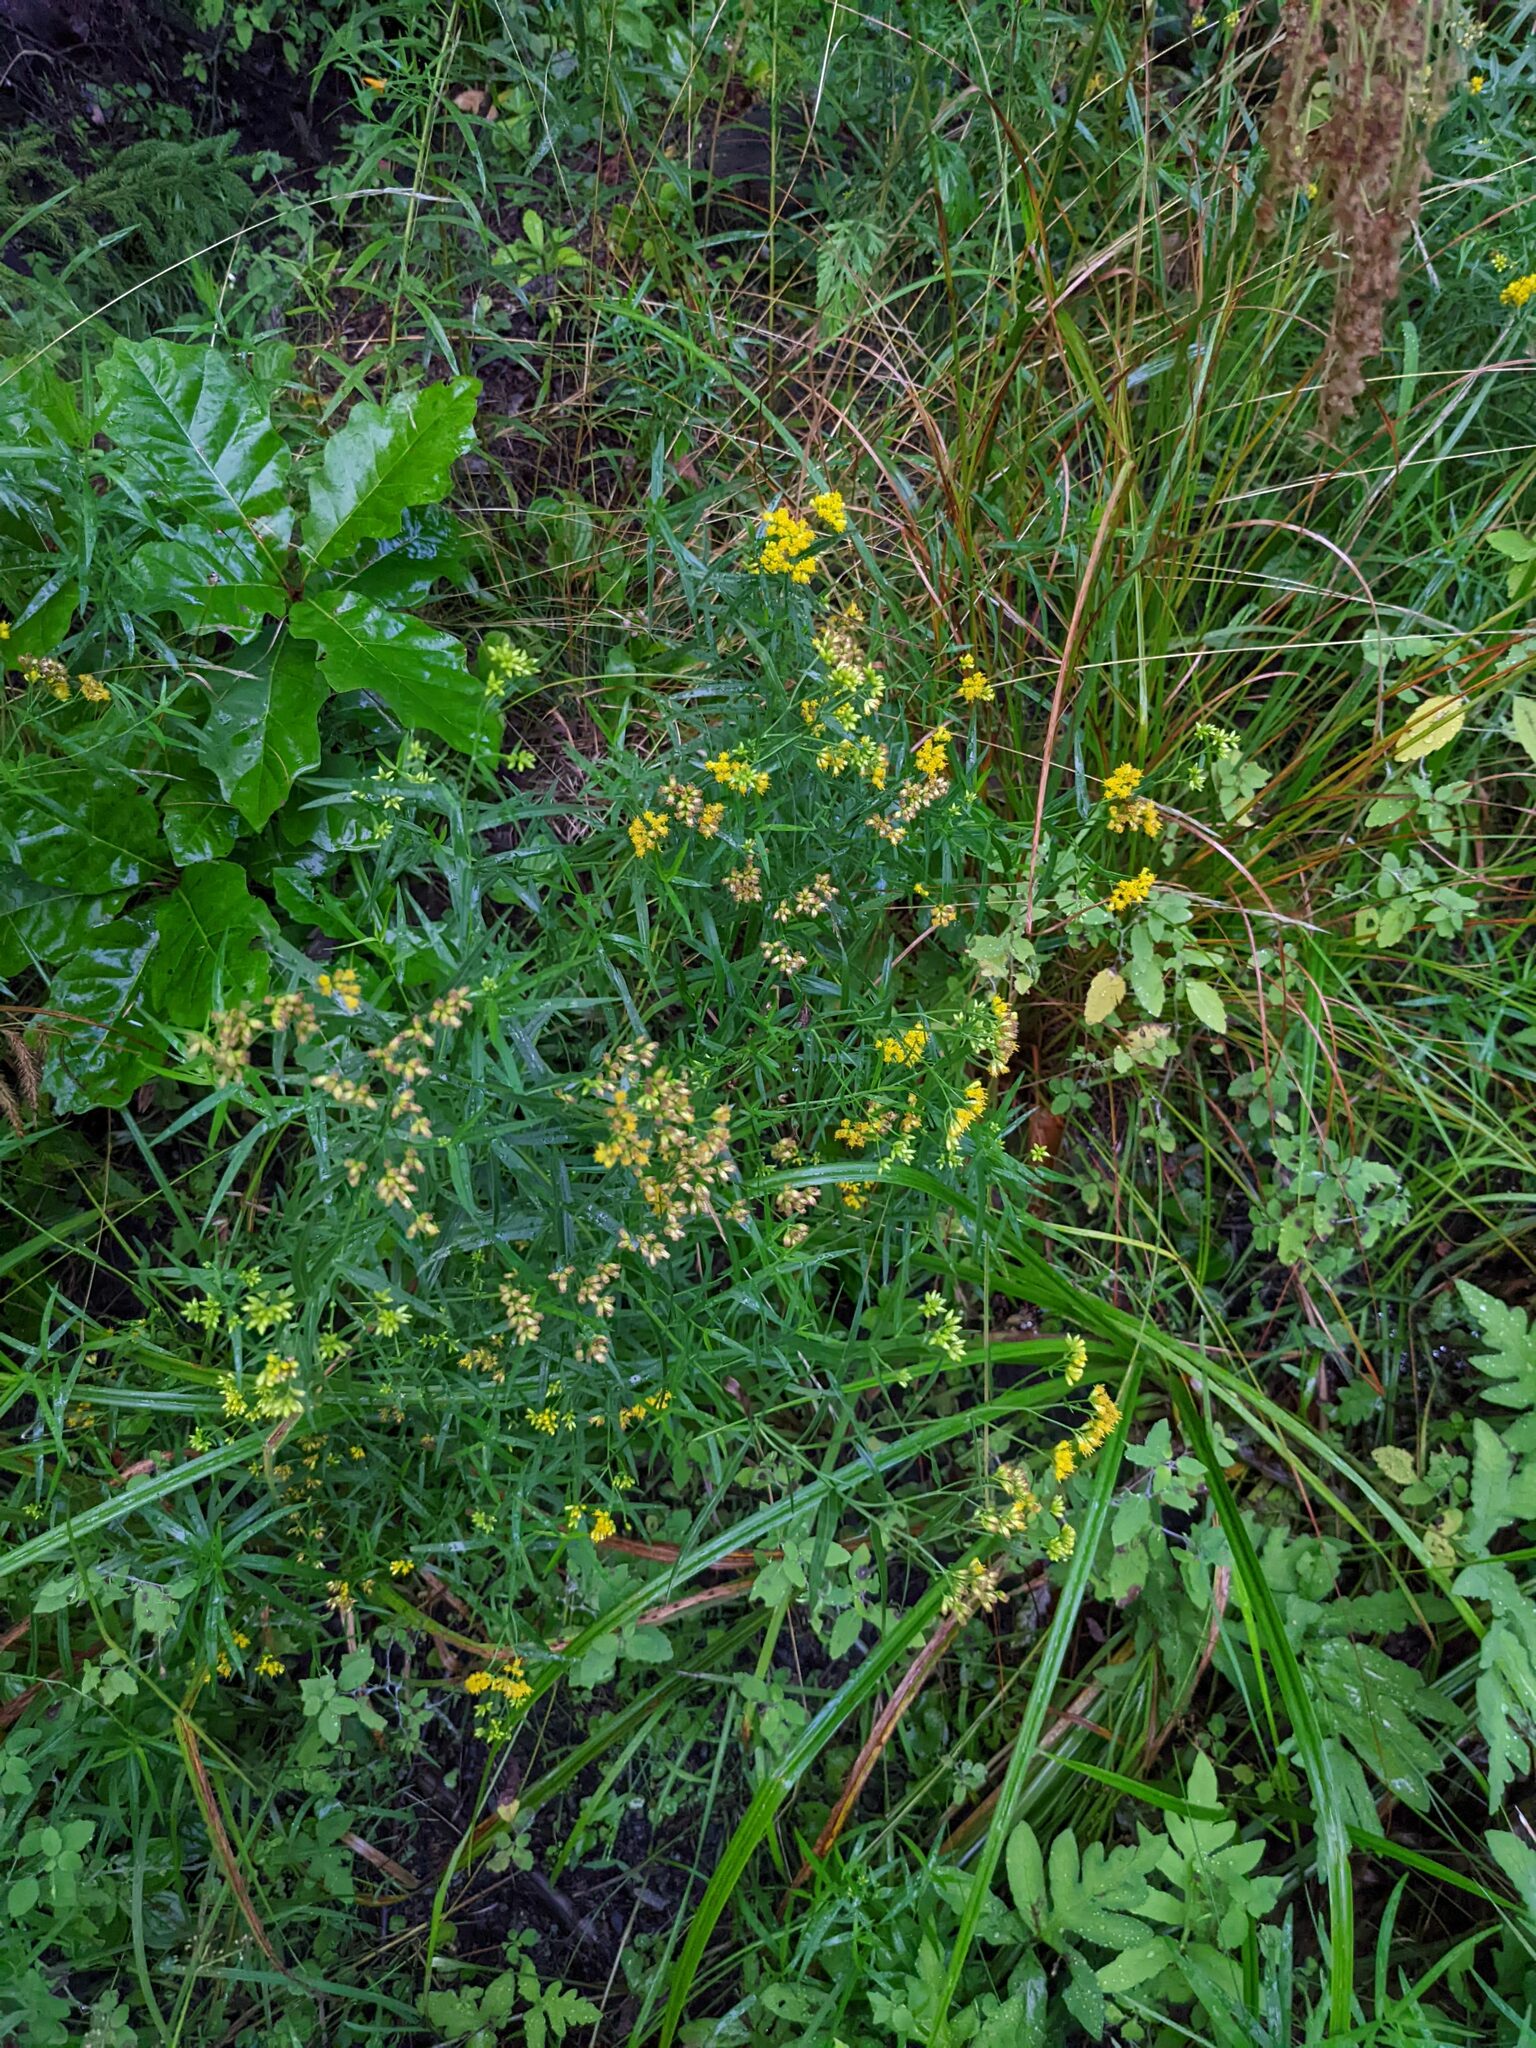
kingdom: Plantae
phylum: Tracheophyta
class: Magnoliopsida
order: Asterales
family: Asteraceae
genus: Euthamia
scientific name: Euthamia graminifolia
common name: Common goldentop
